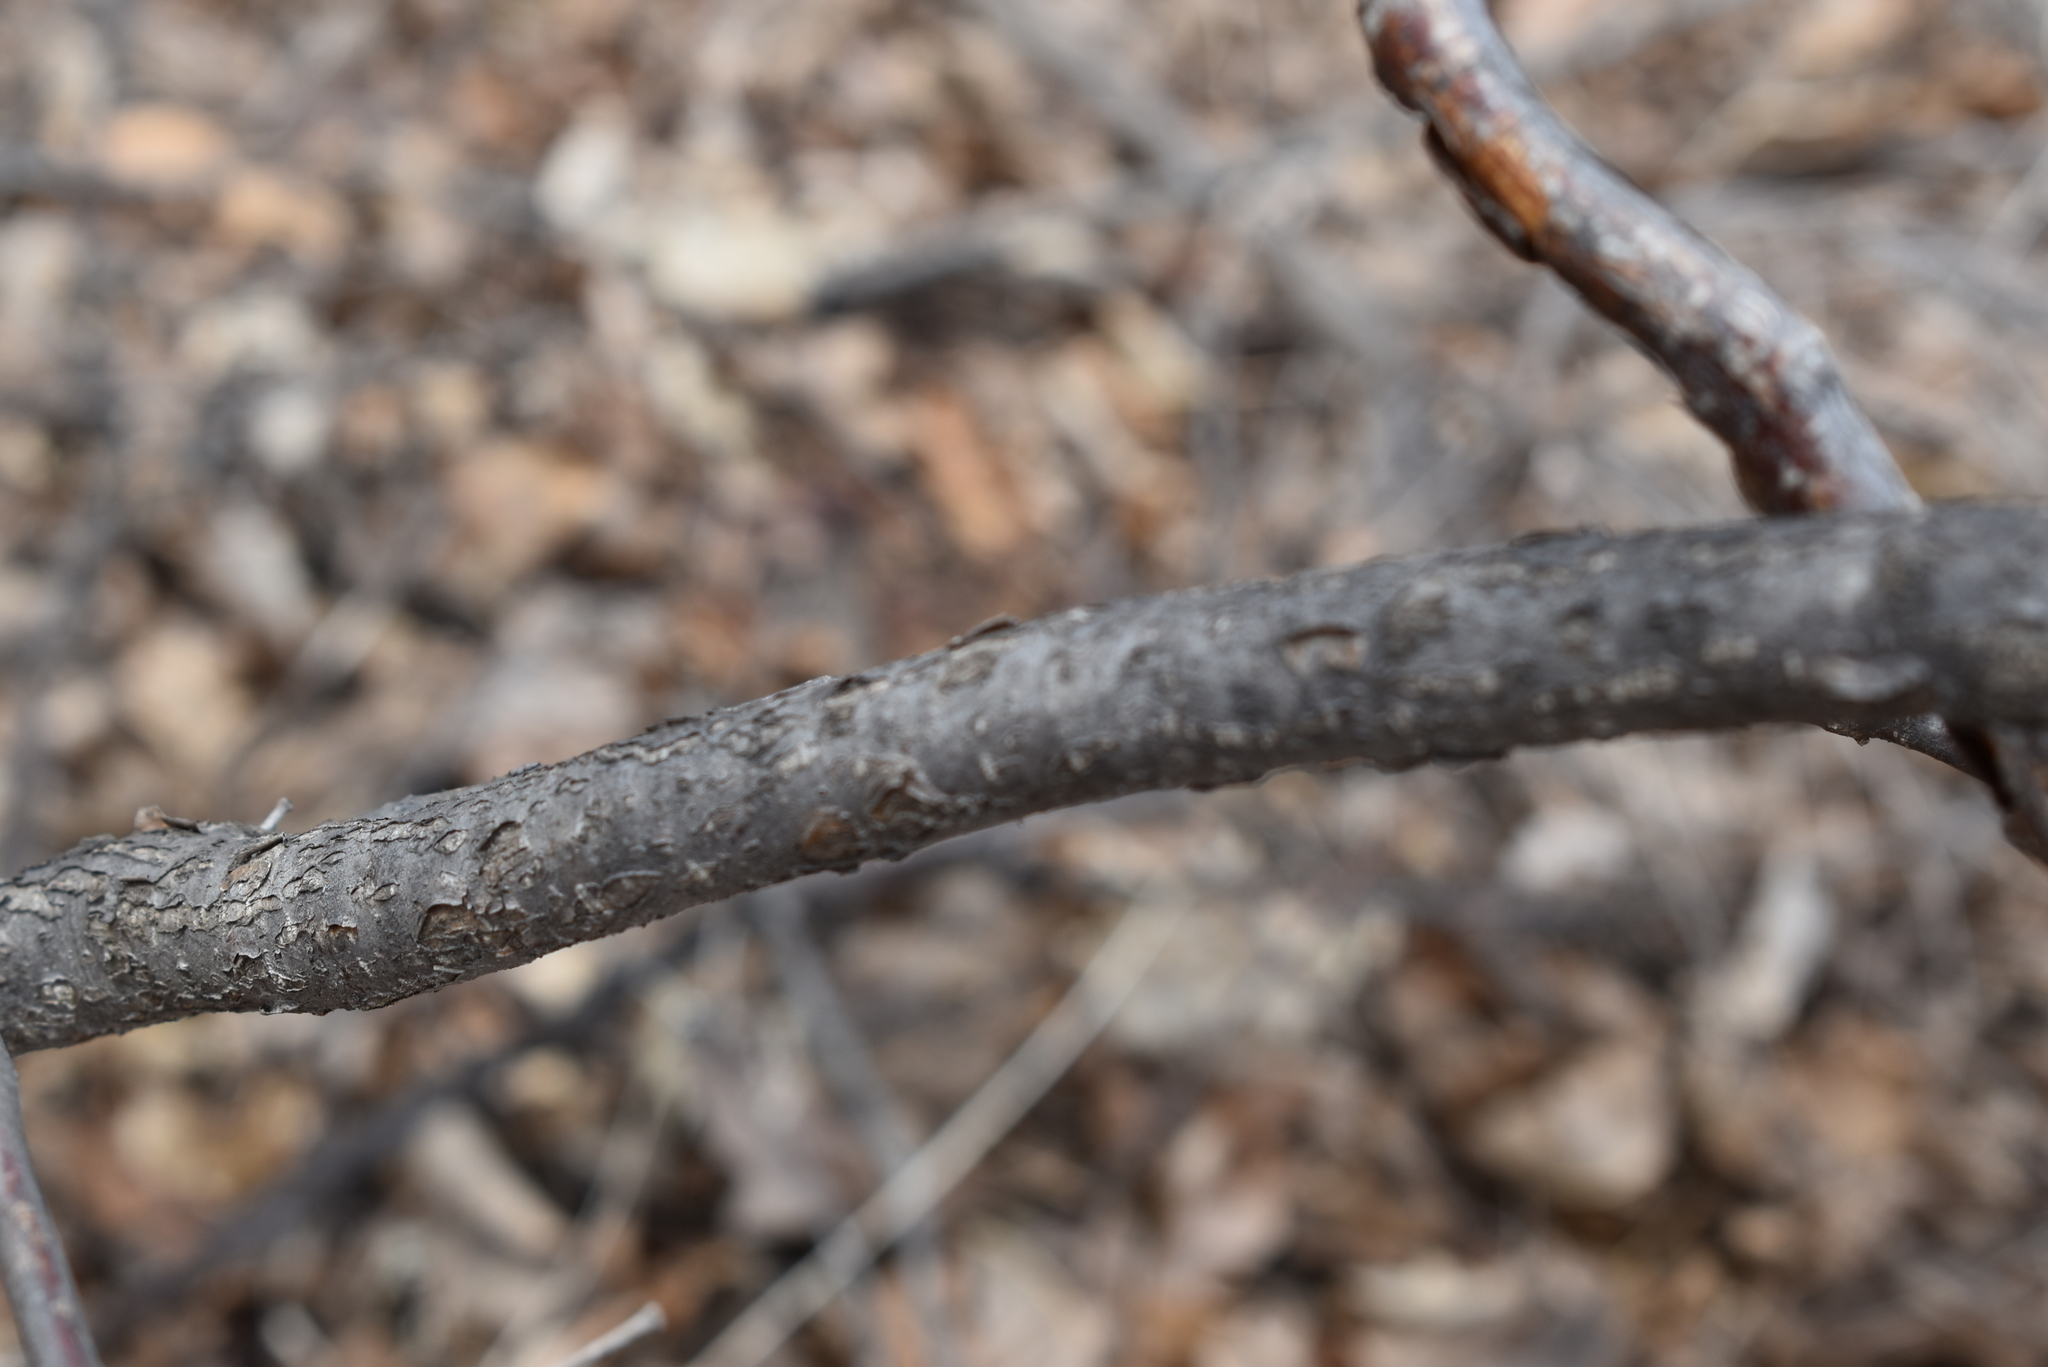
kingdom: Plantae
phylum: Tracheophyta
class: Magnoliopsida
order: Fagales
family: Betulaceae
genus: Corylus
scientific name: Corylus heterophylla
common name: Siberian hazelnut
